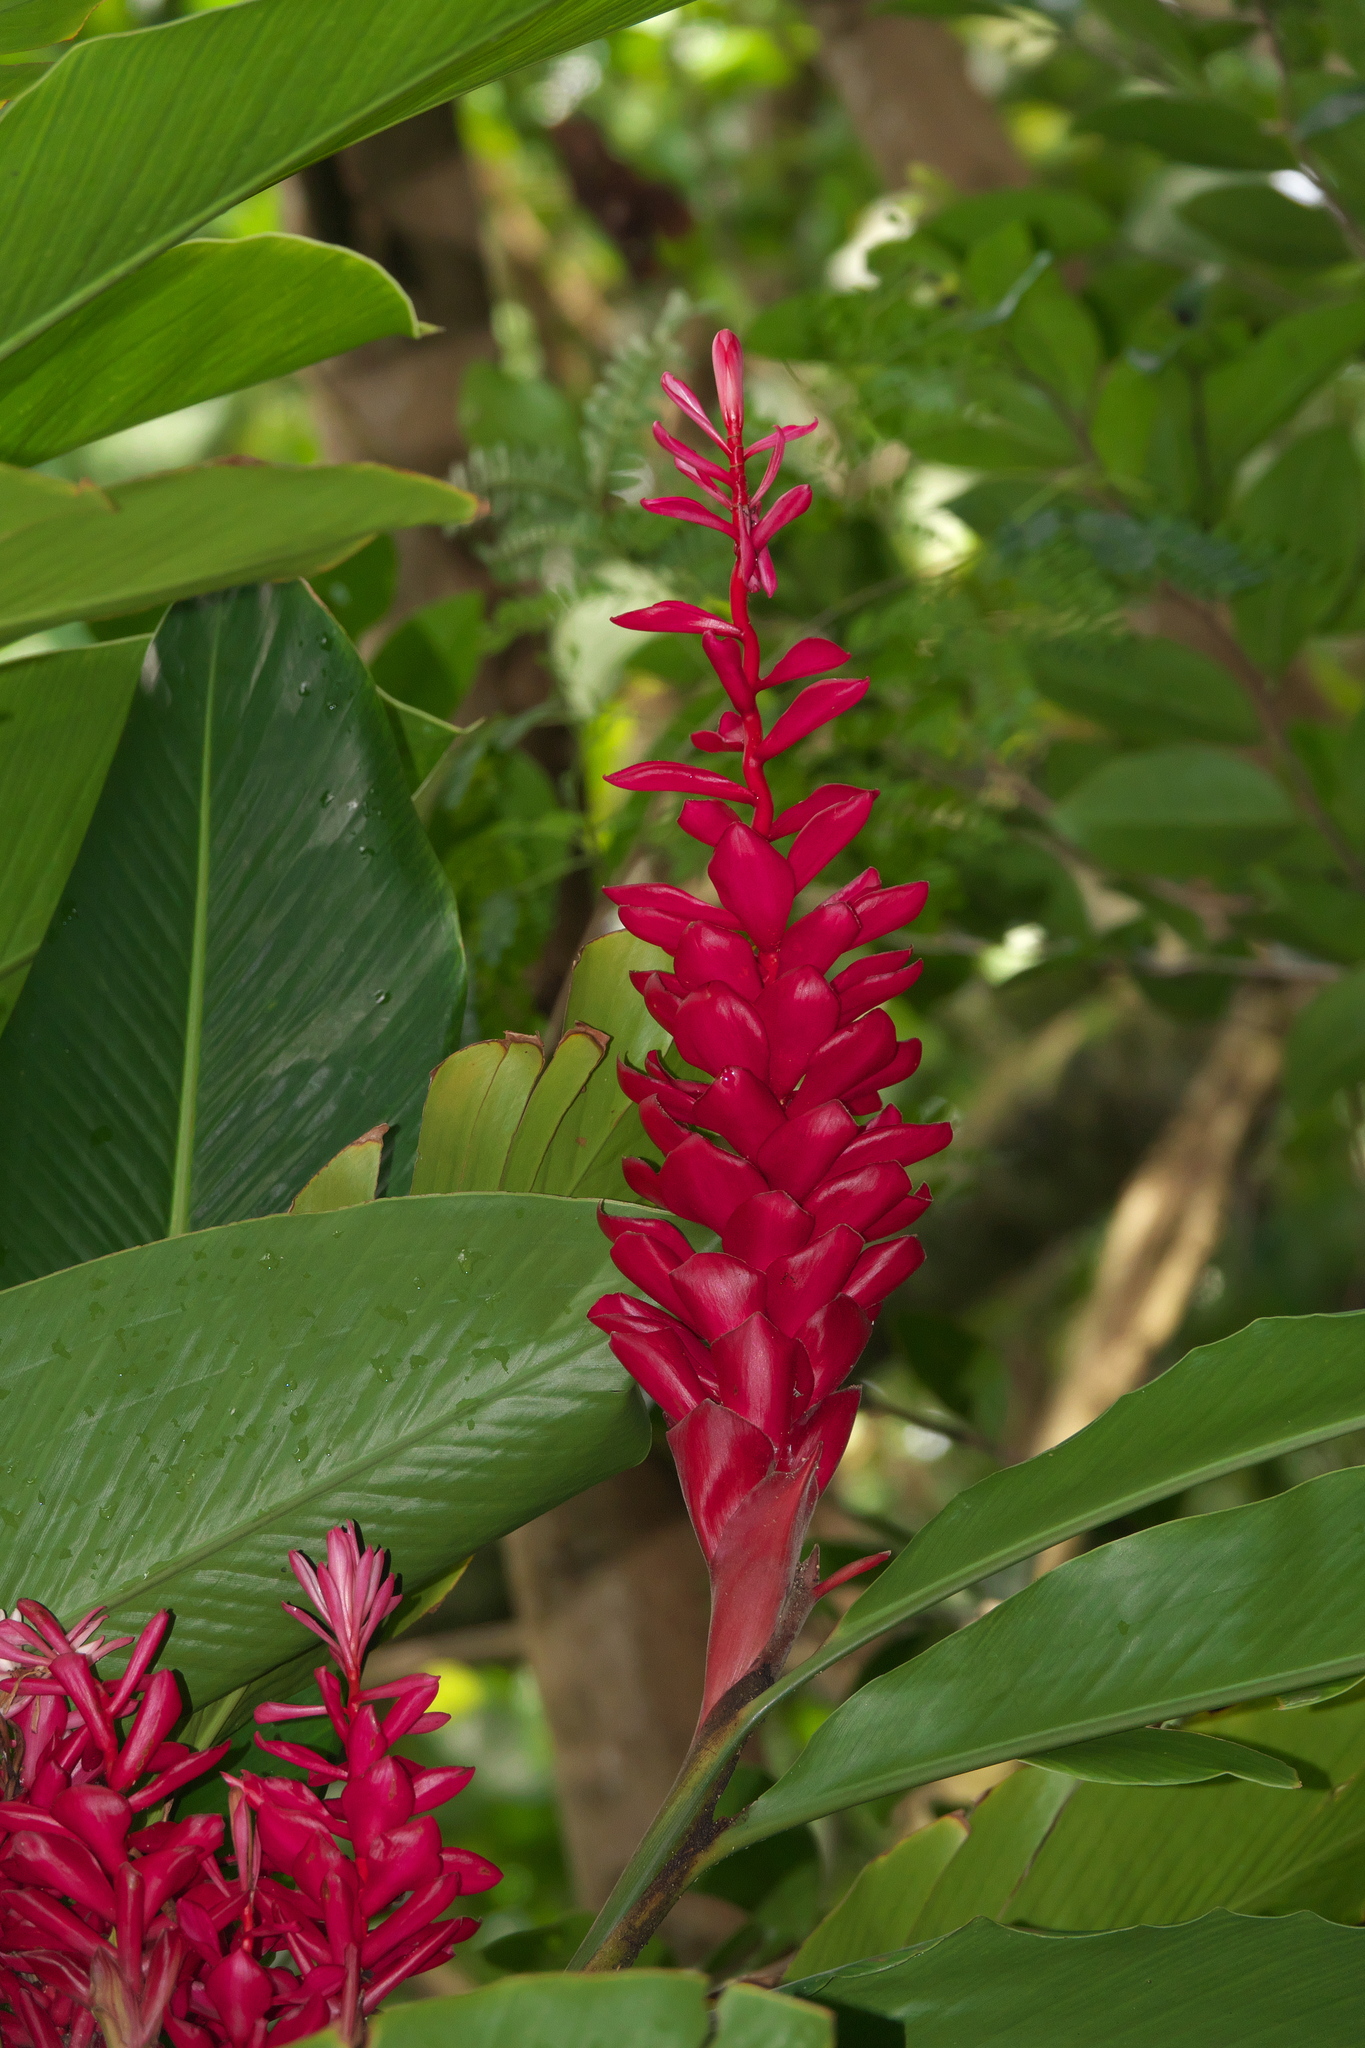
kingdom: Plantae
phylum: Tracheophyta
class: Liliopsida
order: Zingiberales
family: Zingiberaceae
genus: Alpinia
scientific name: Alpinia purpurata
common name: Red ginger
